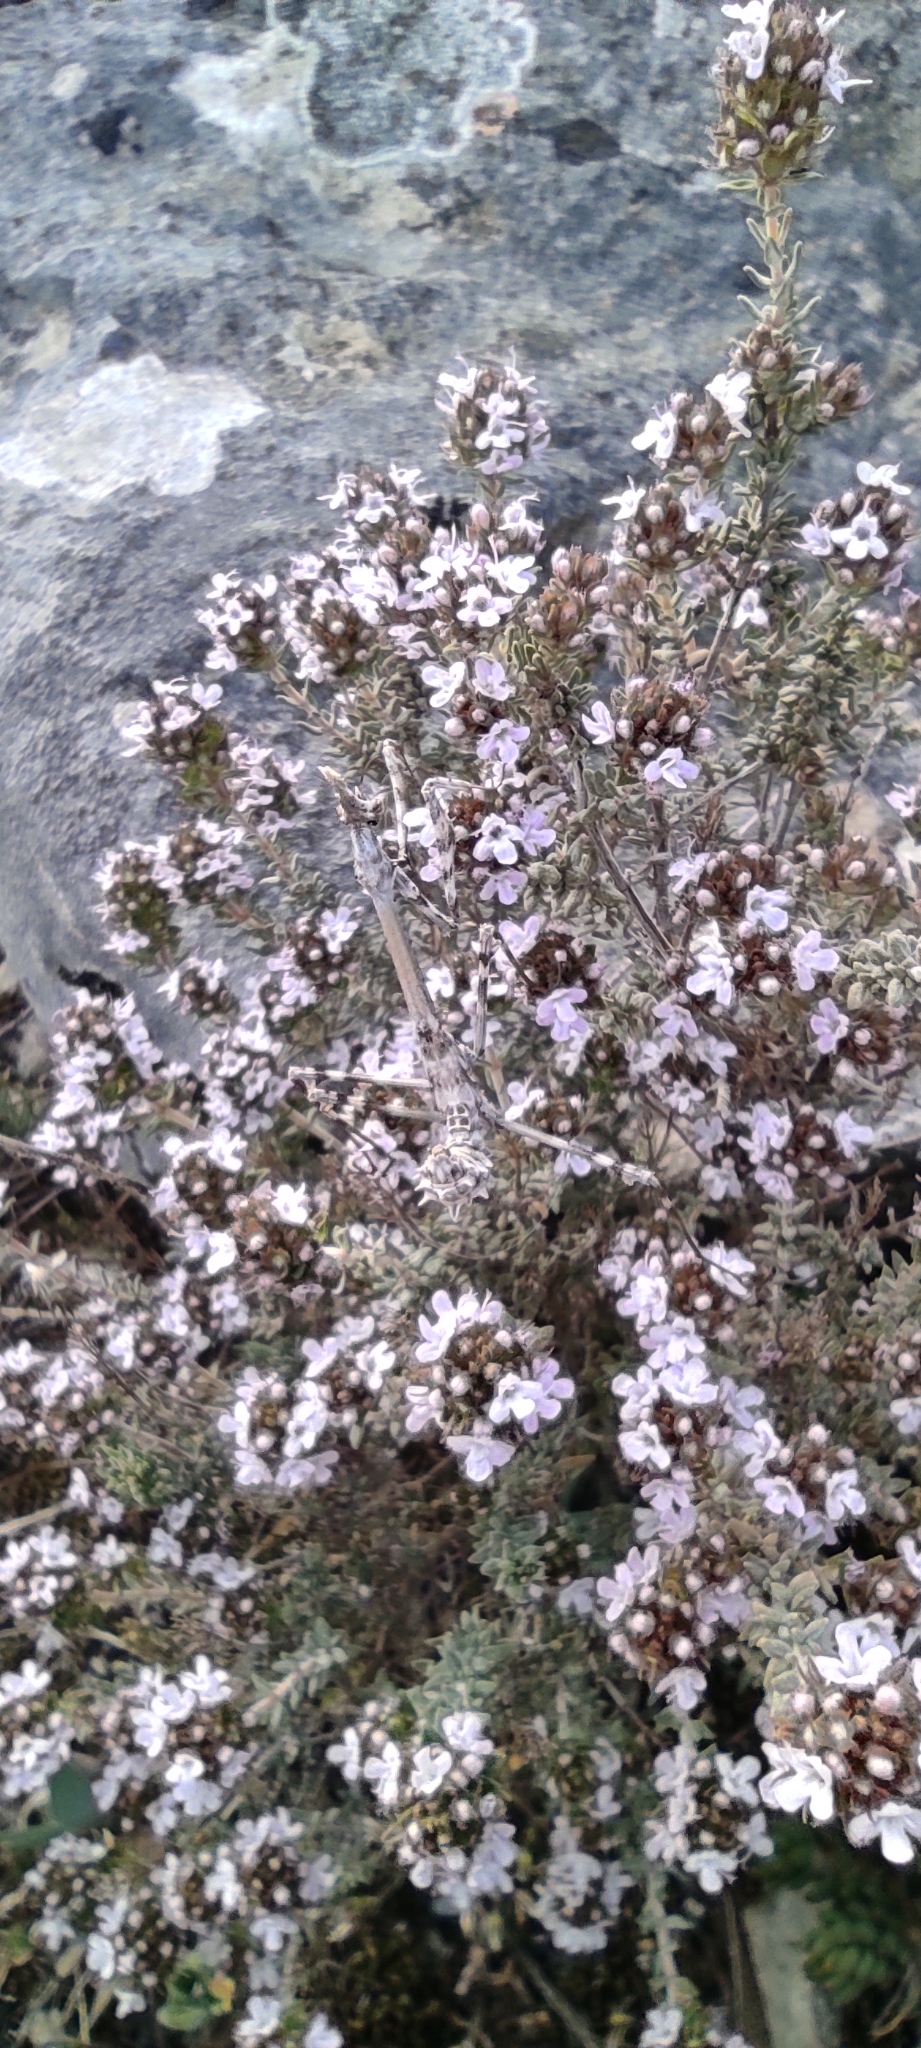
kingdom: Plantae
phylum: Tracheophyta
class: Magnoliopsida
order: Lamiales
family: Lamiaceae
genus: Thymus
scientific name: Thymus vulgaris
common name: Garden thyme
